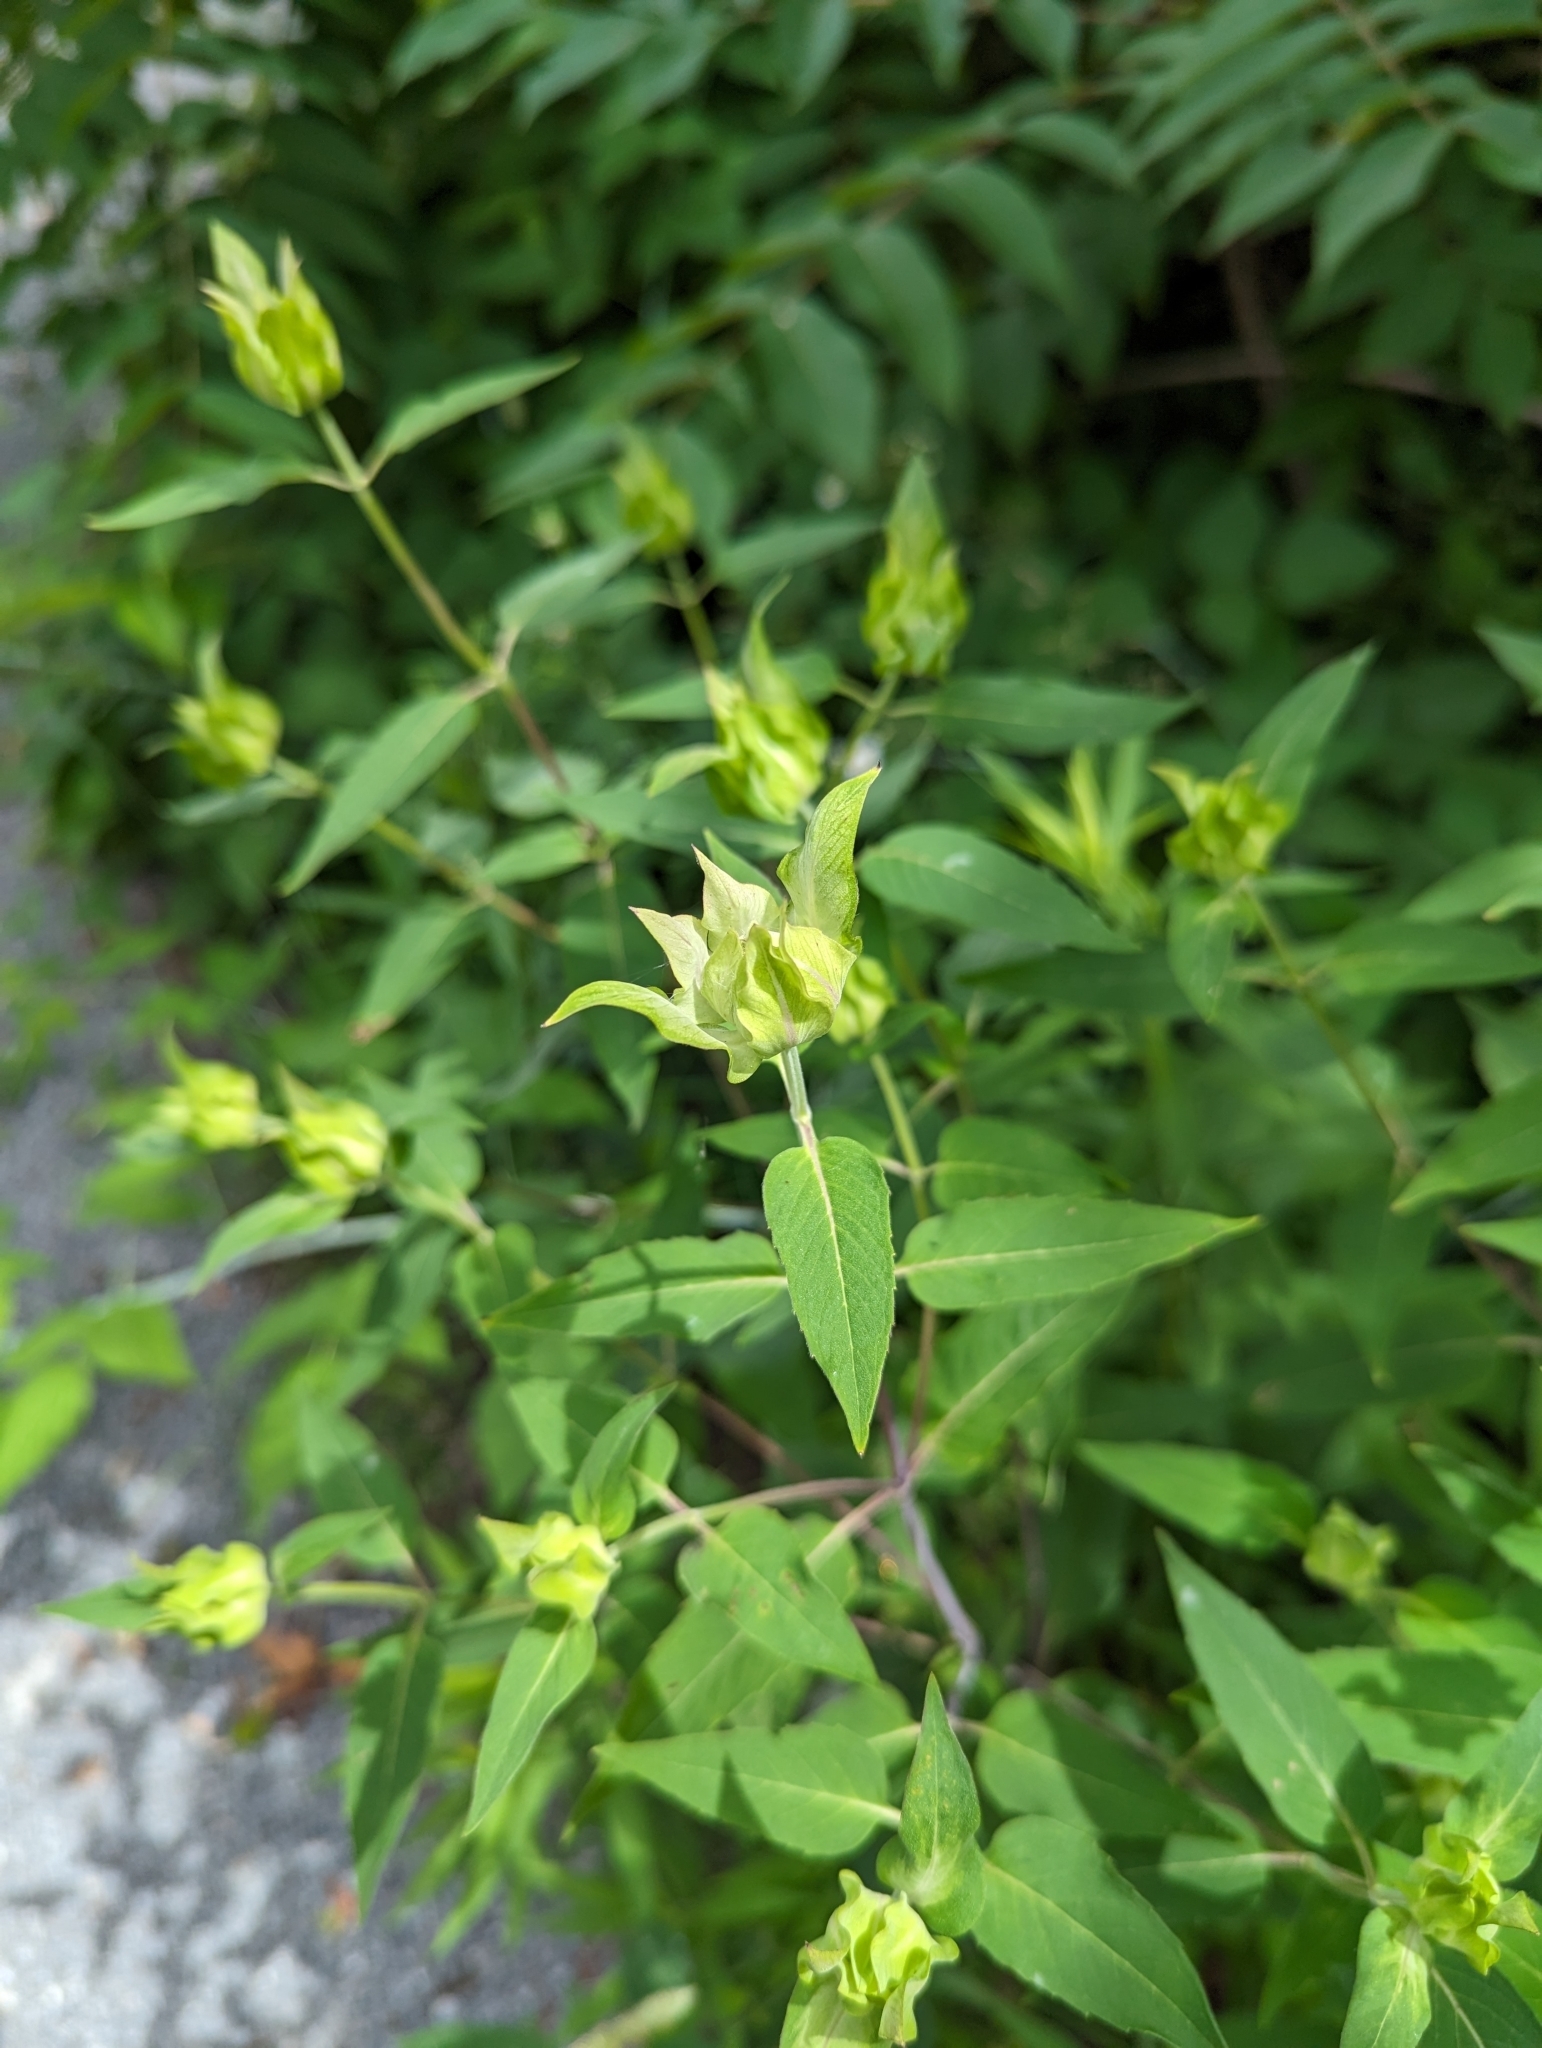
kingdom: Plantae
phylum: Tracheophyta
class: Magnoliopsida
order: Lamiales
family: Lamiaceae
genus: Monarda
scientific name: Monarda fistulosa
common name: Purple beebalm
